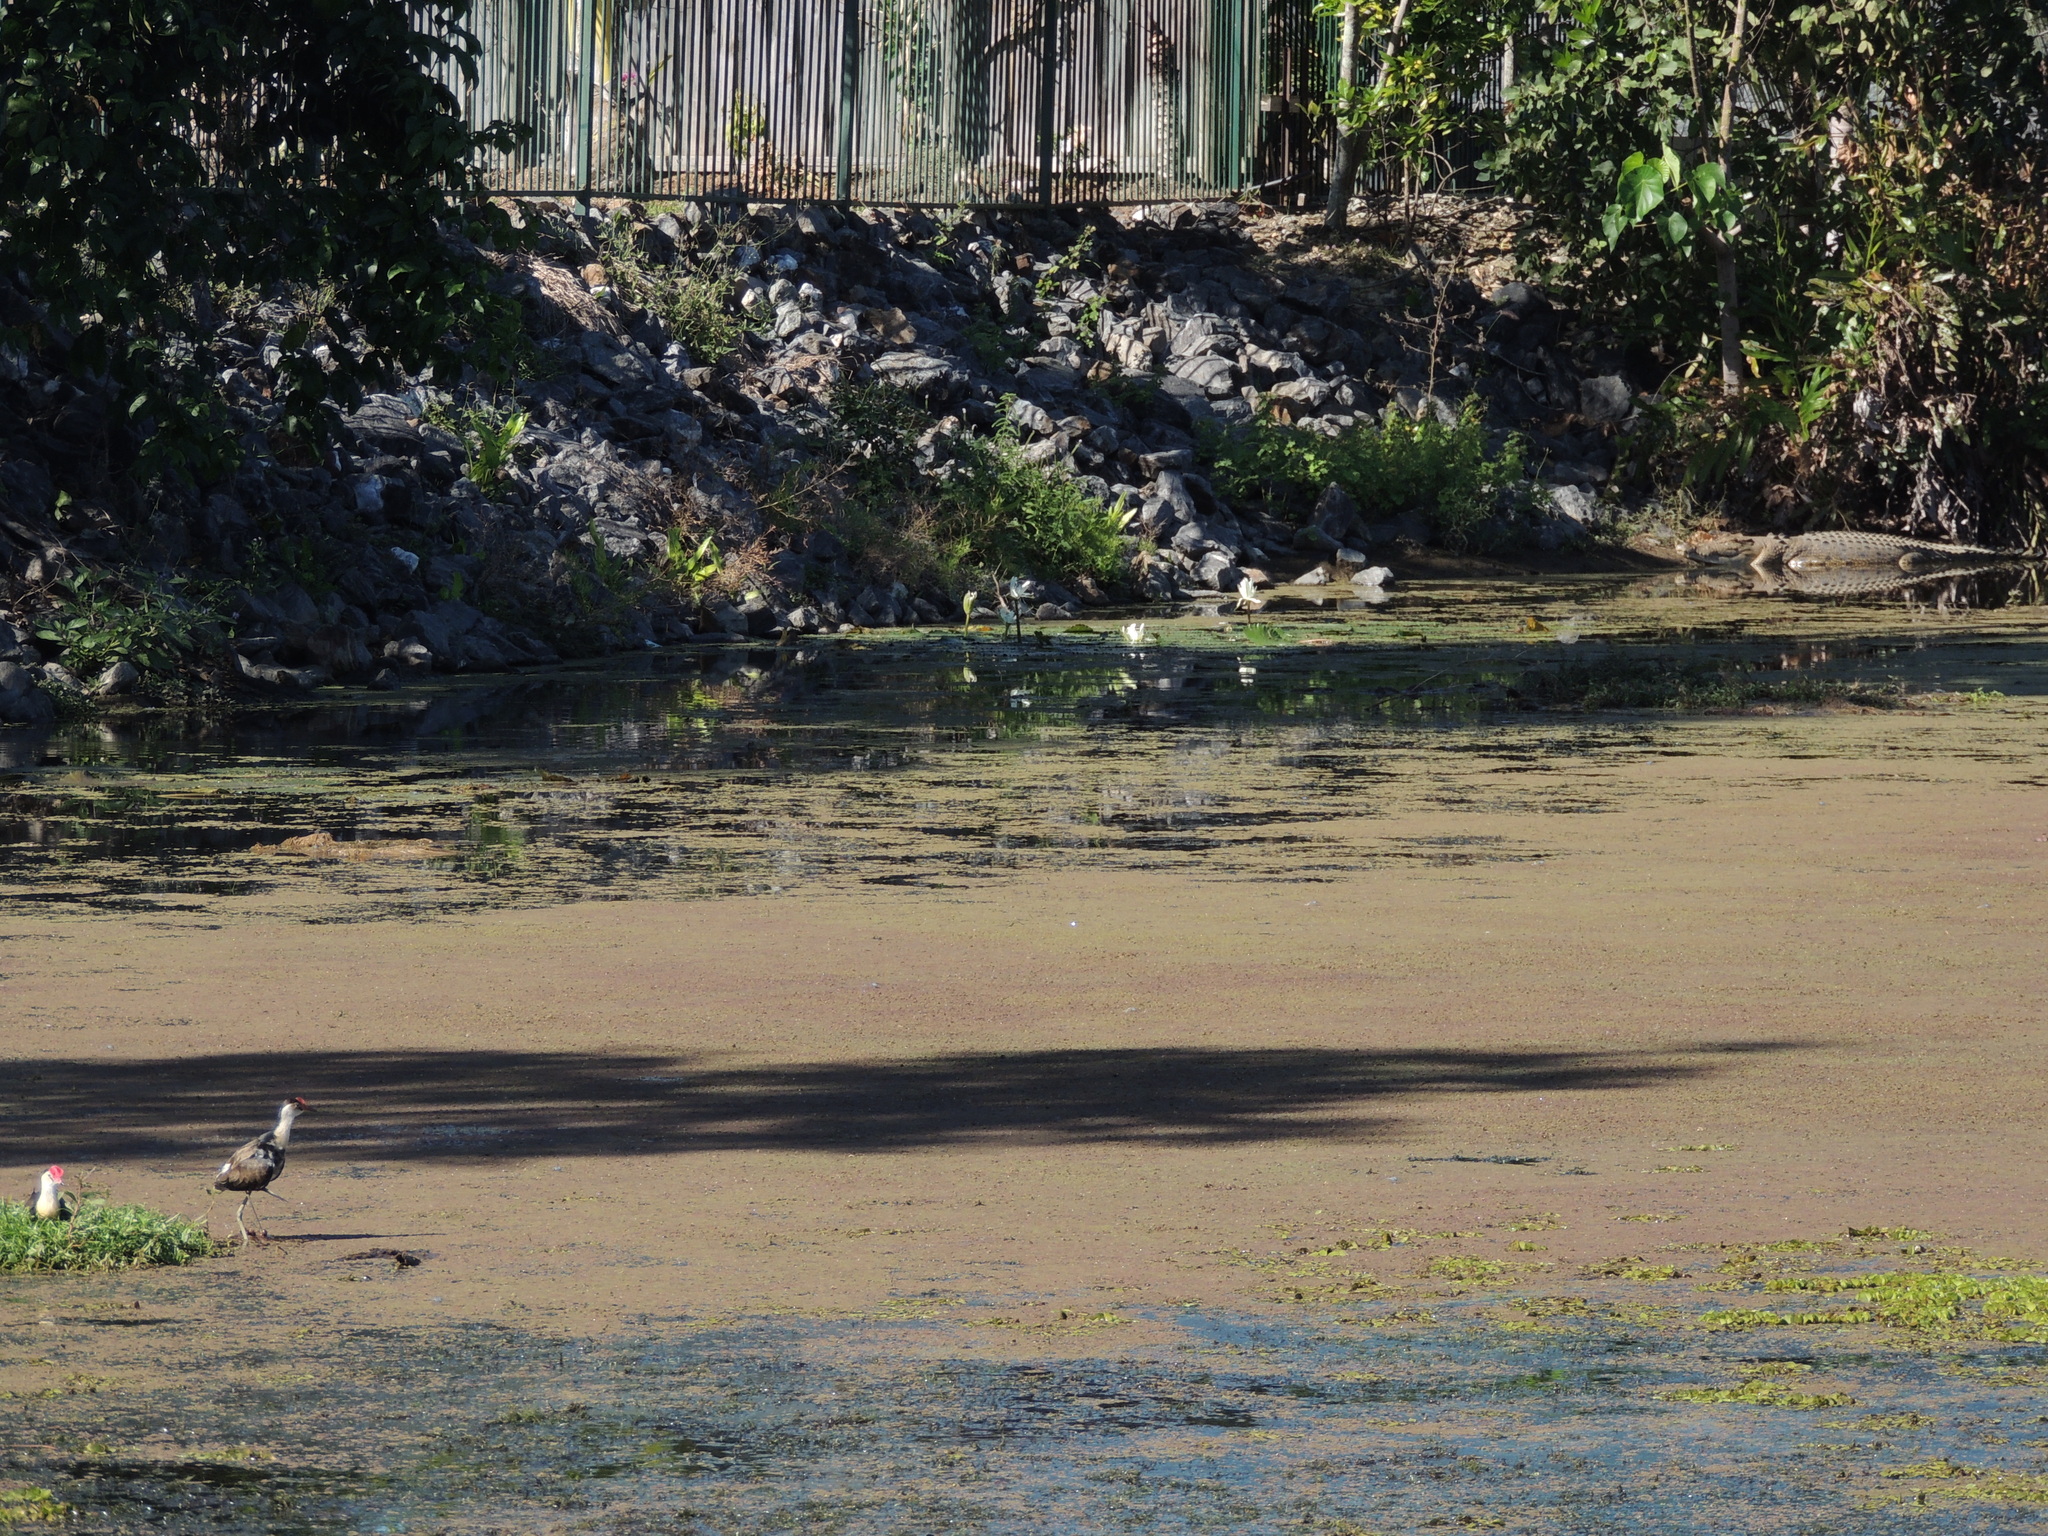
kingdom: Animalia
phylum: Chordata
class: Crocodylia
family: Crocodylidae
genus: Crocodylus
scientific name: Crocodylus porosus
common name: Saltwater crocodile
